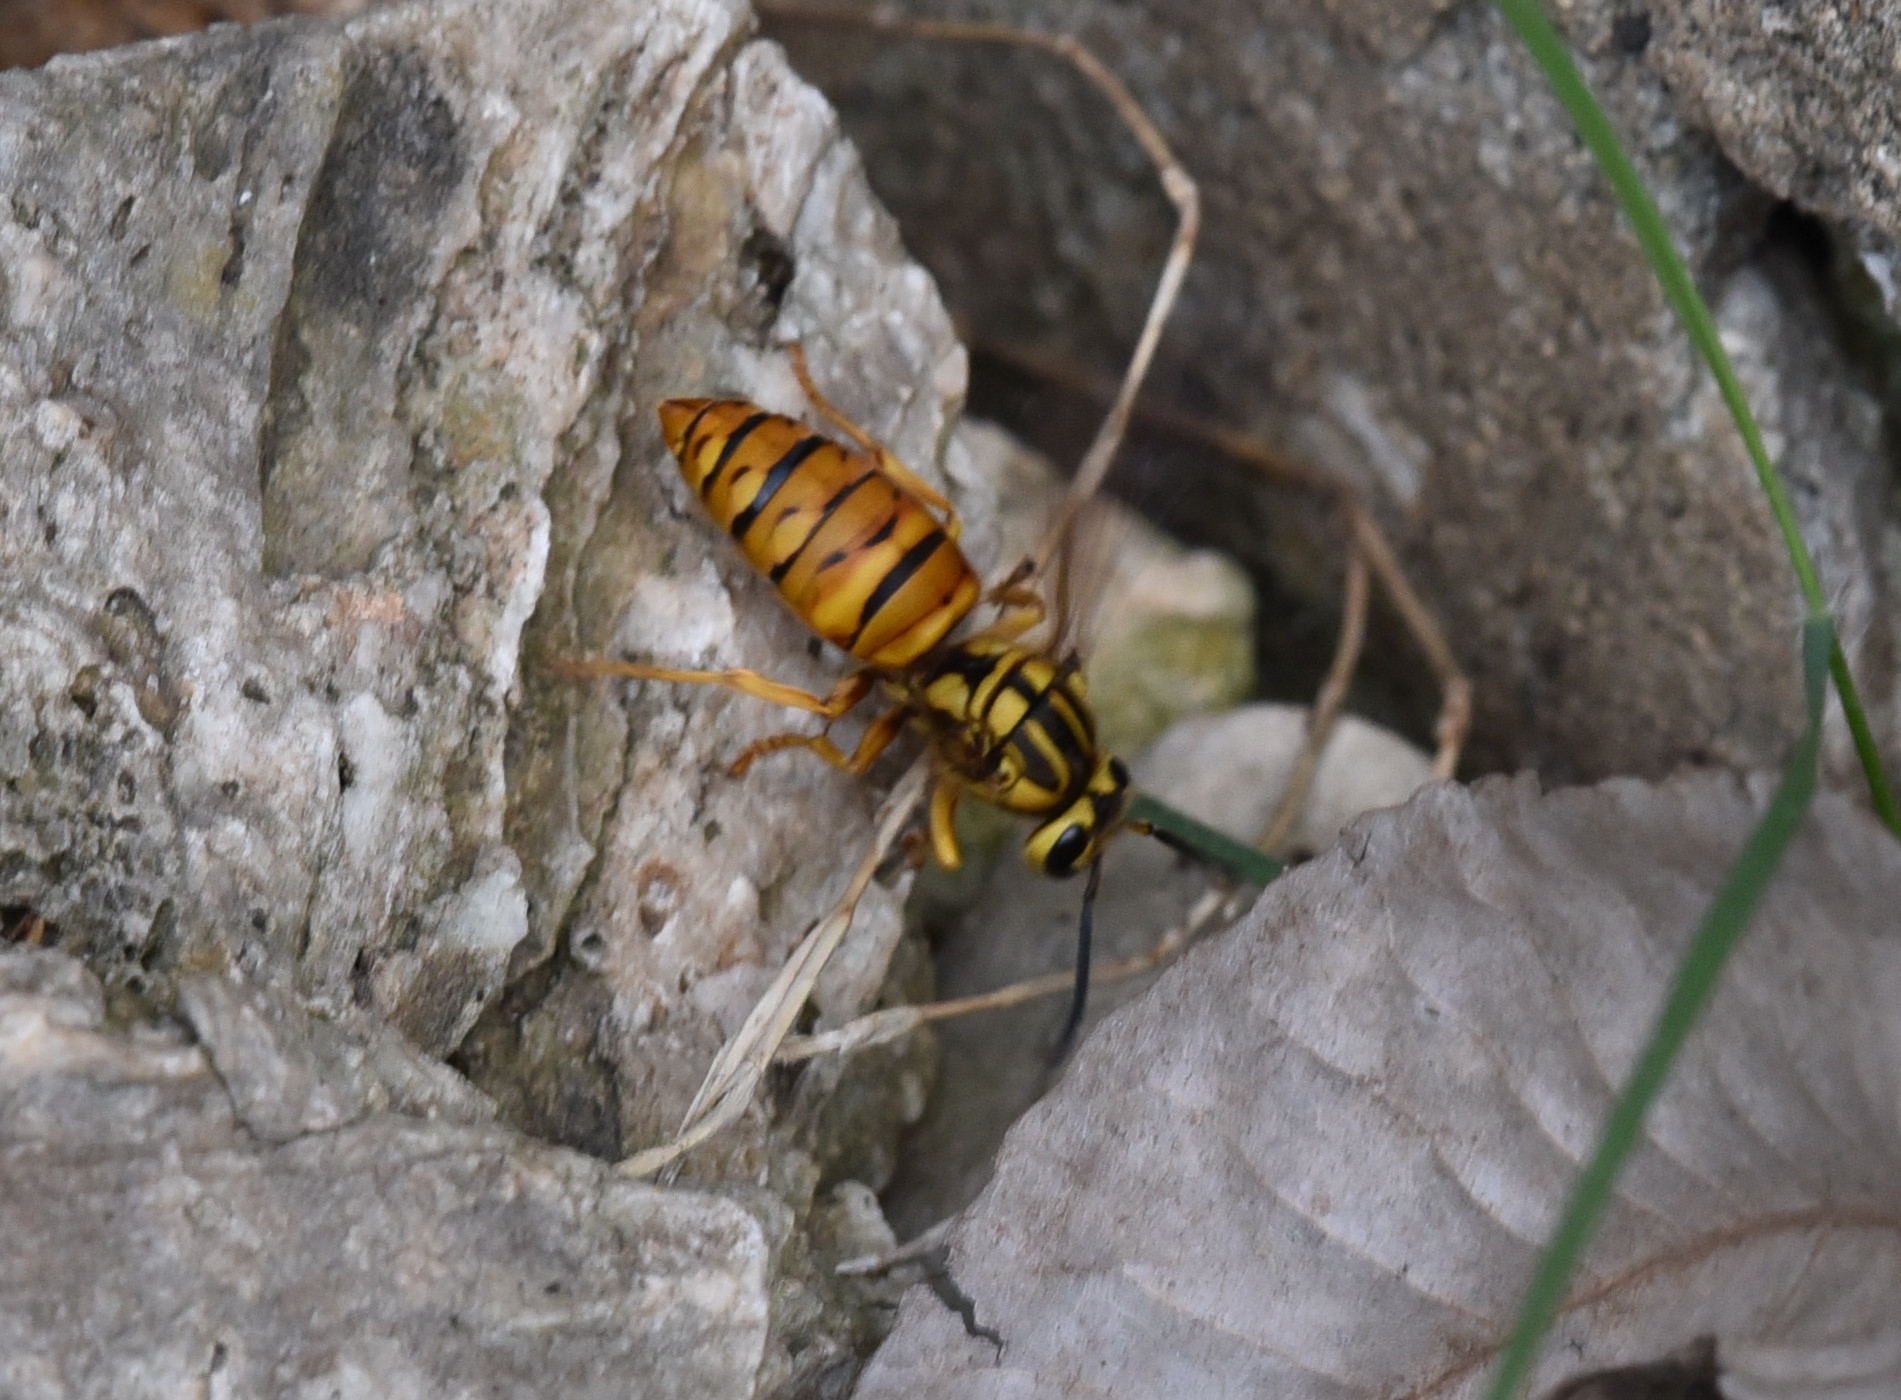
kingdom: Animalia
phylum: Arthropoda
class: Insecta
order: Hymenoptera
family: Vespidae
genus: Vespula
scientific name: Vespula squamosa
